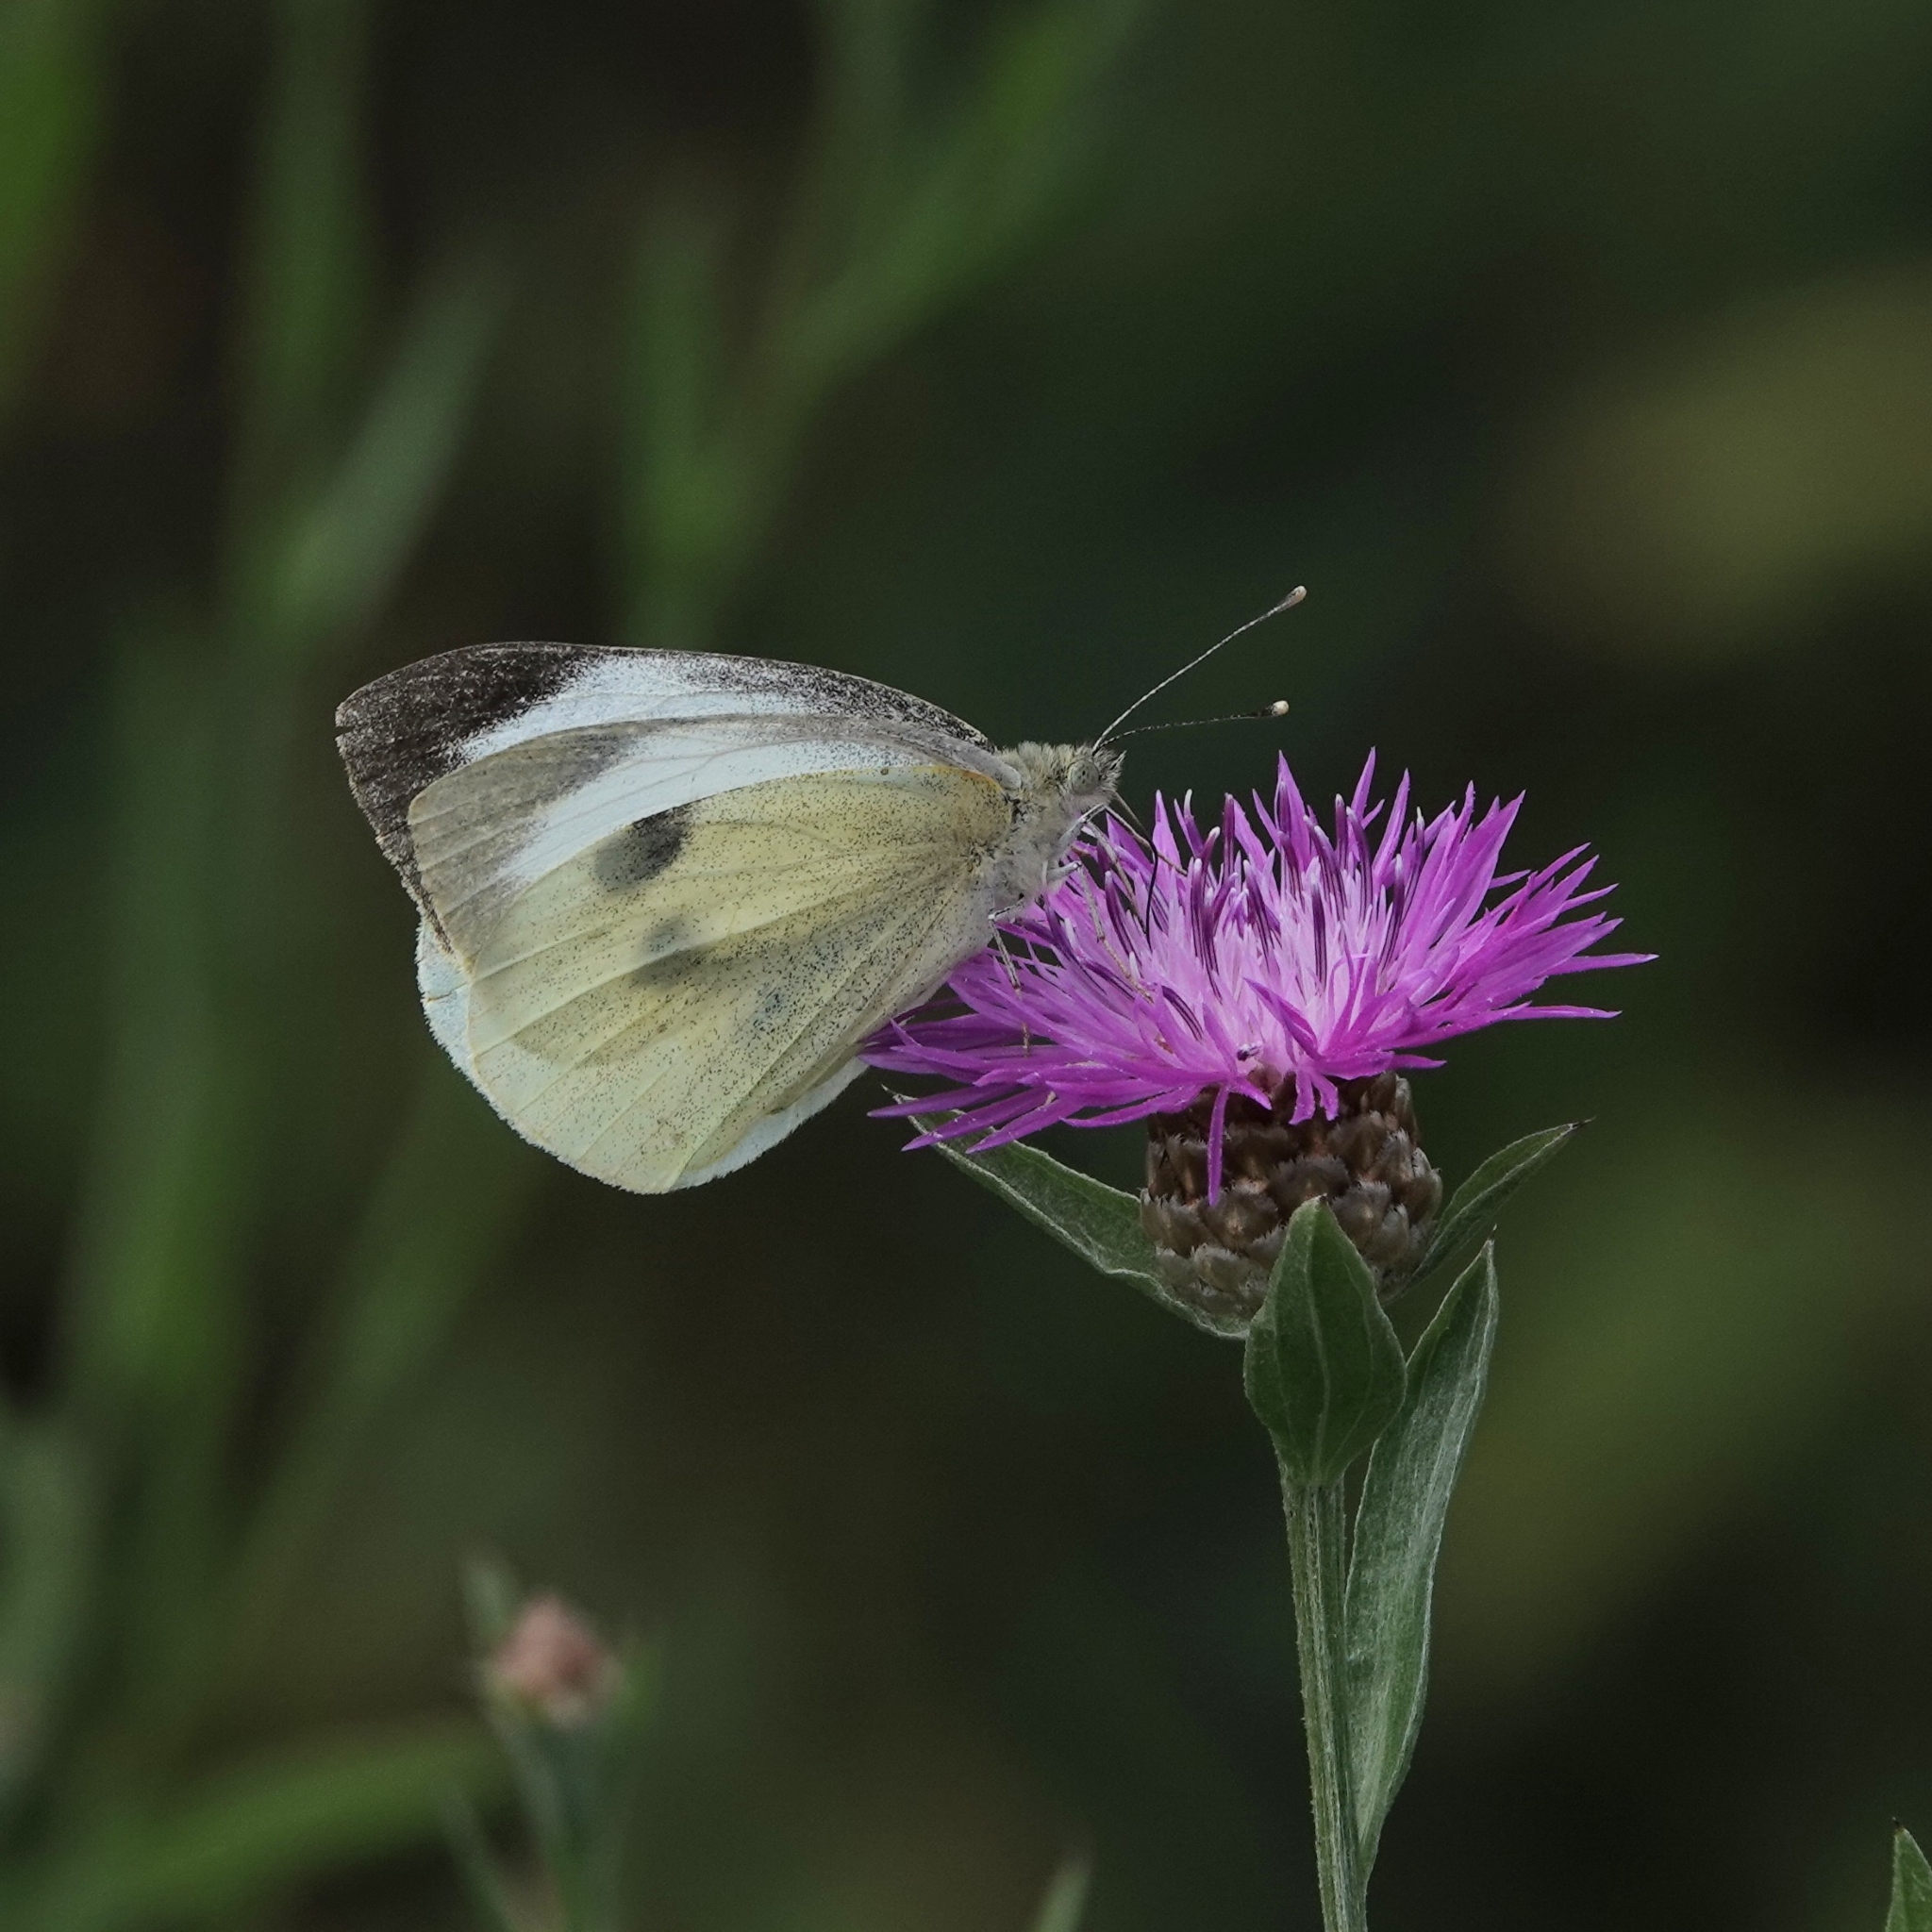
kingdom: Animalia
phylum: Arthropoda
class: Insecta
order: Lepidoptera
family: Pieridae
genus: Pieris
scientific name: Pieris brassicae
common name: Large white
